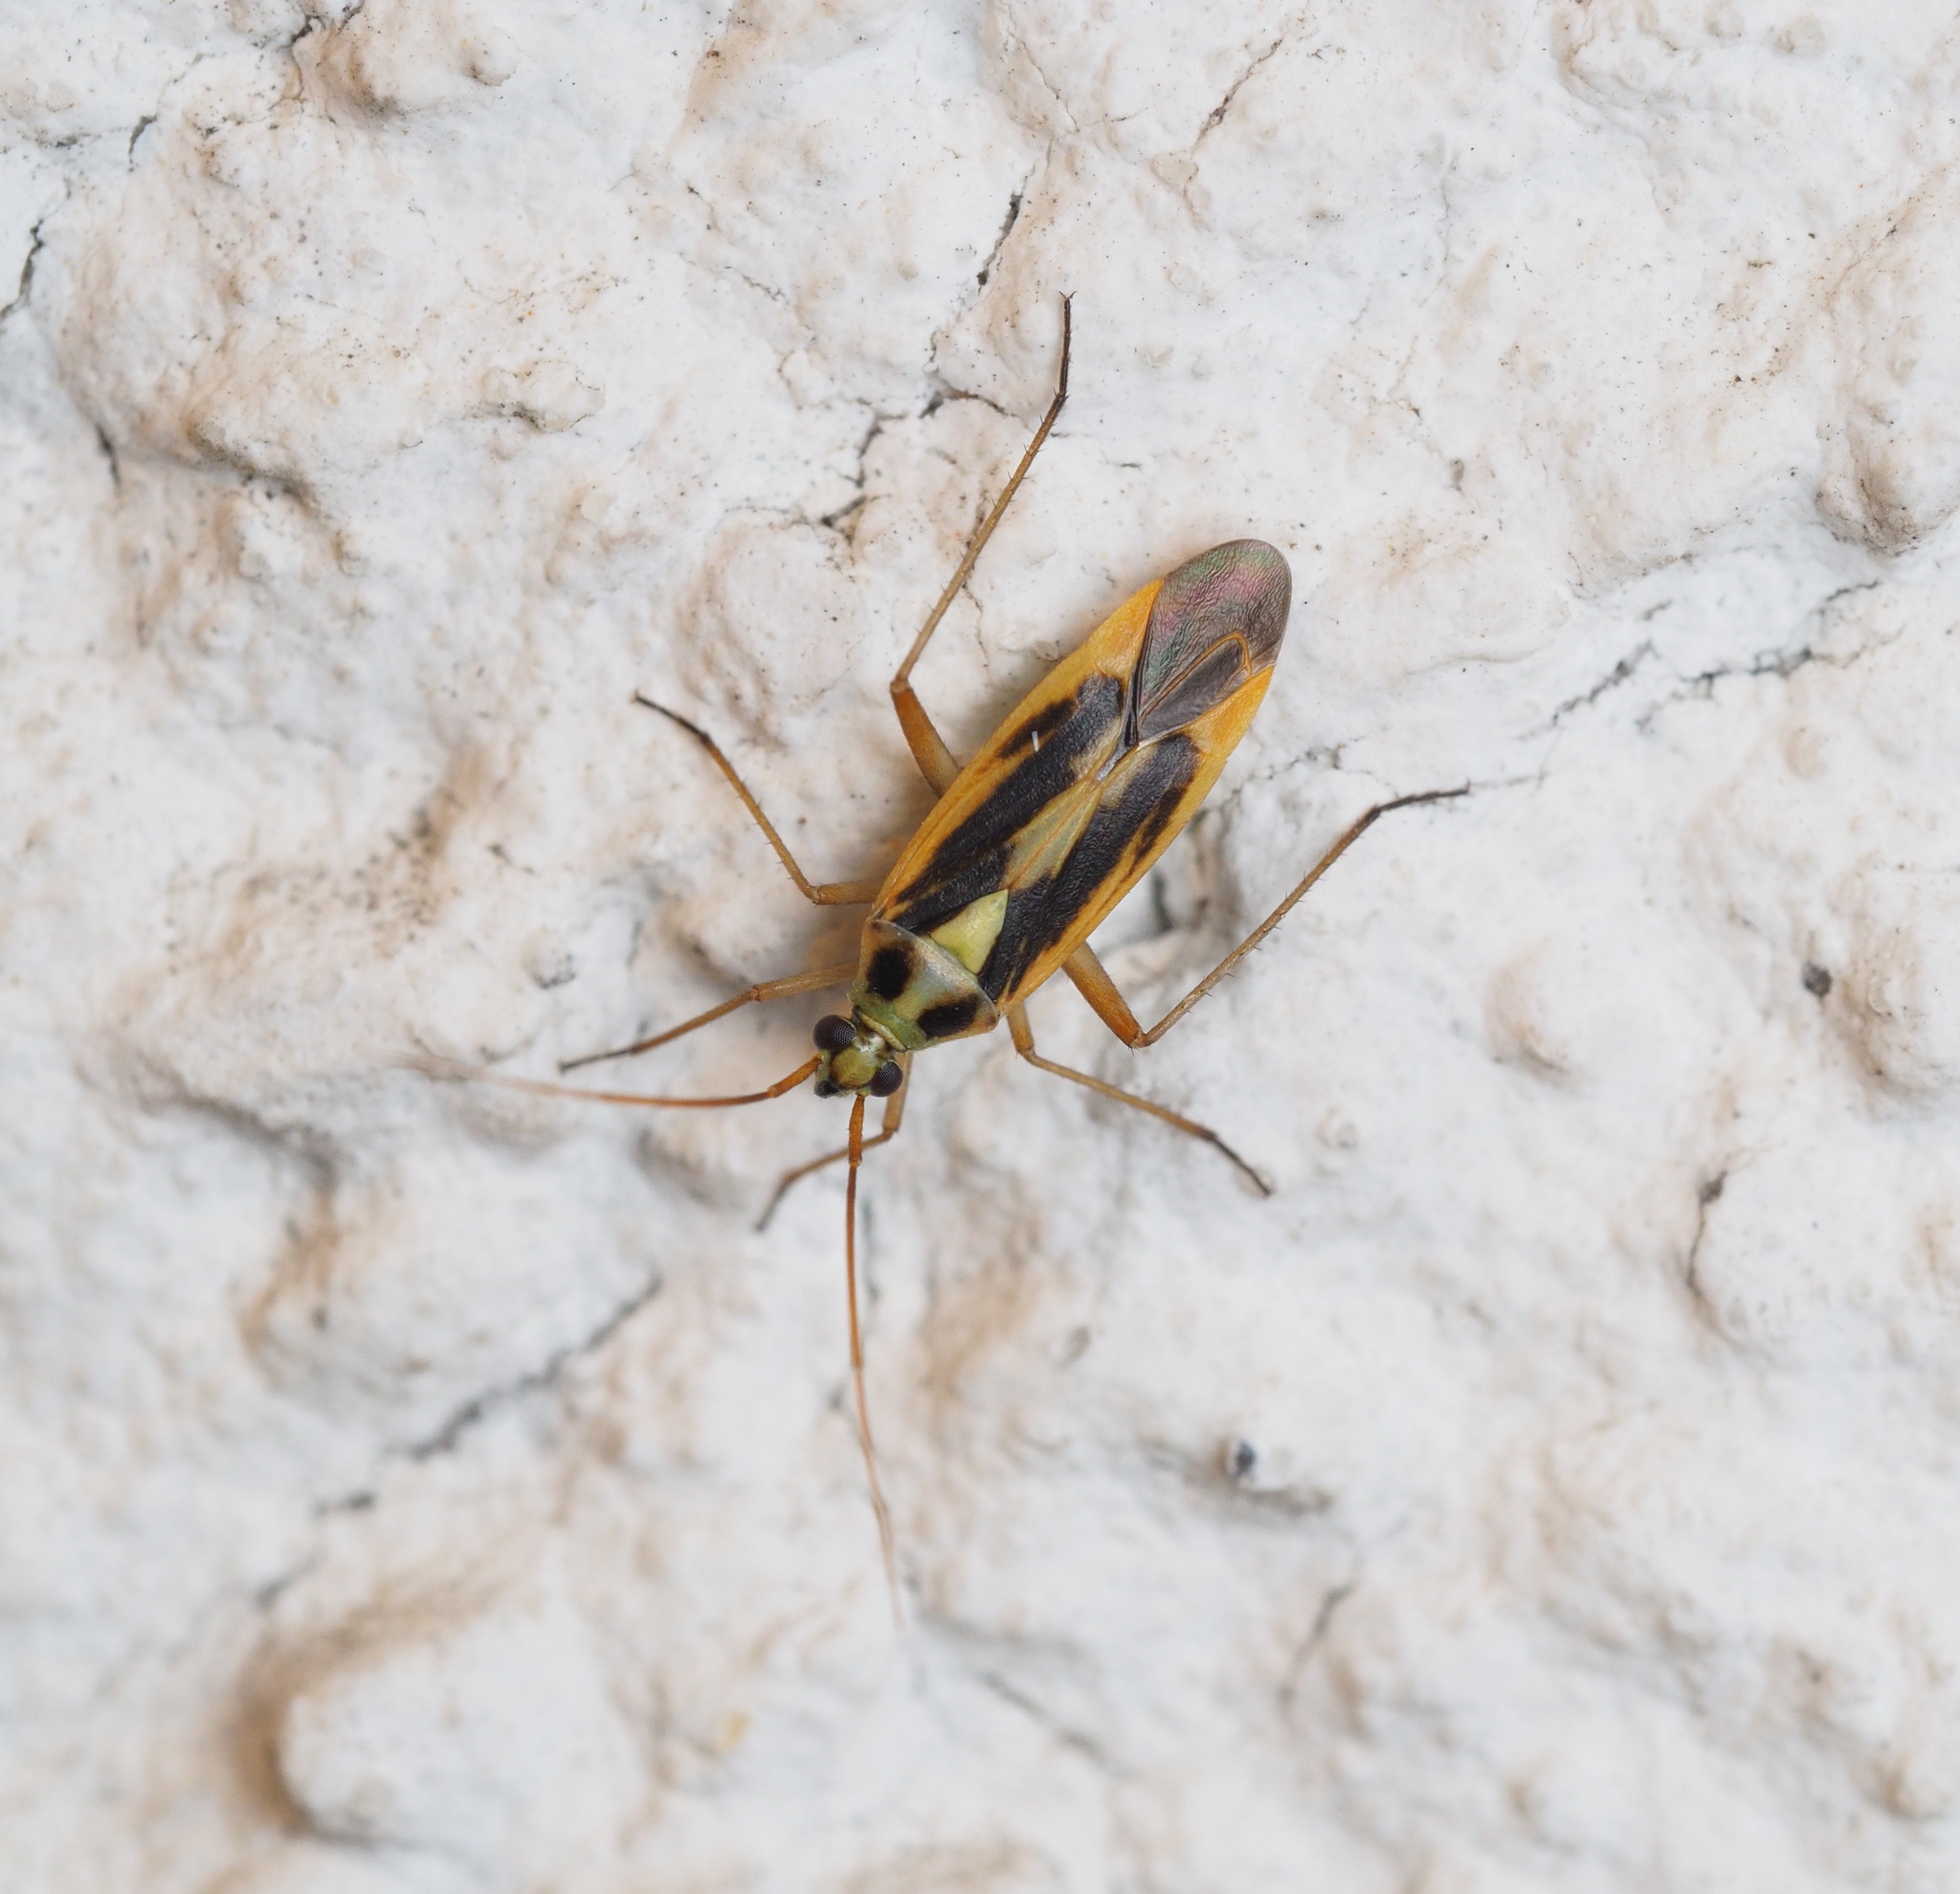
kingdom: Animalia
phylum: Arthropoda
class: Insecta
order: Hemiptera
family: Miridae
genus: Stenotus
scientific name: Stenotus binotatus
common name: Plant bug
